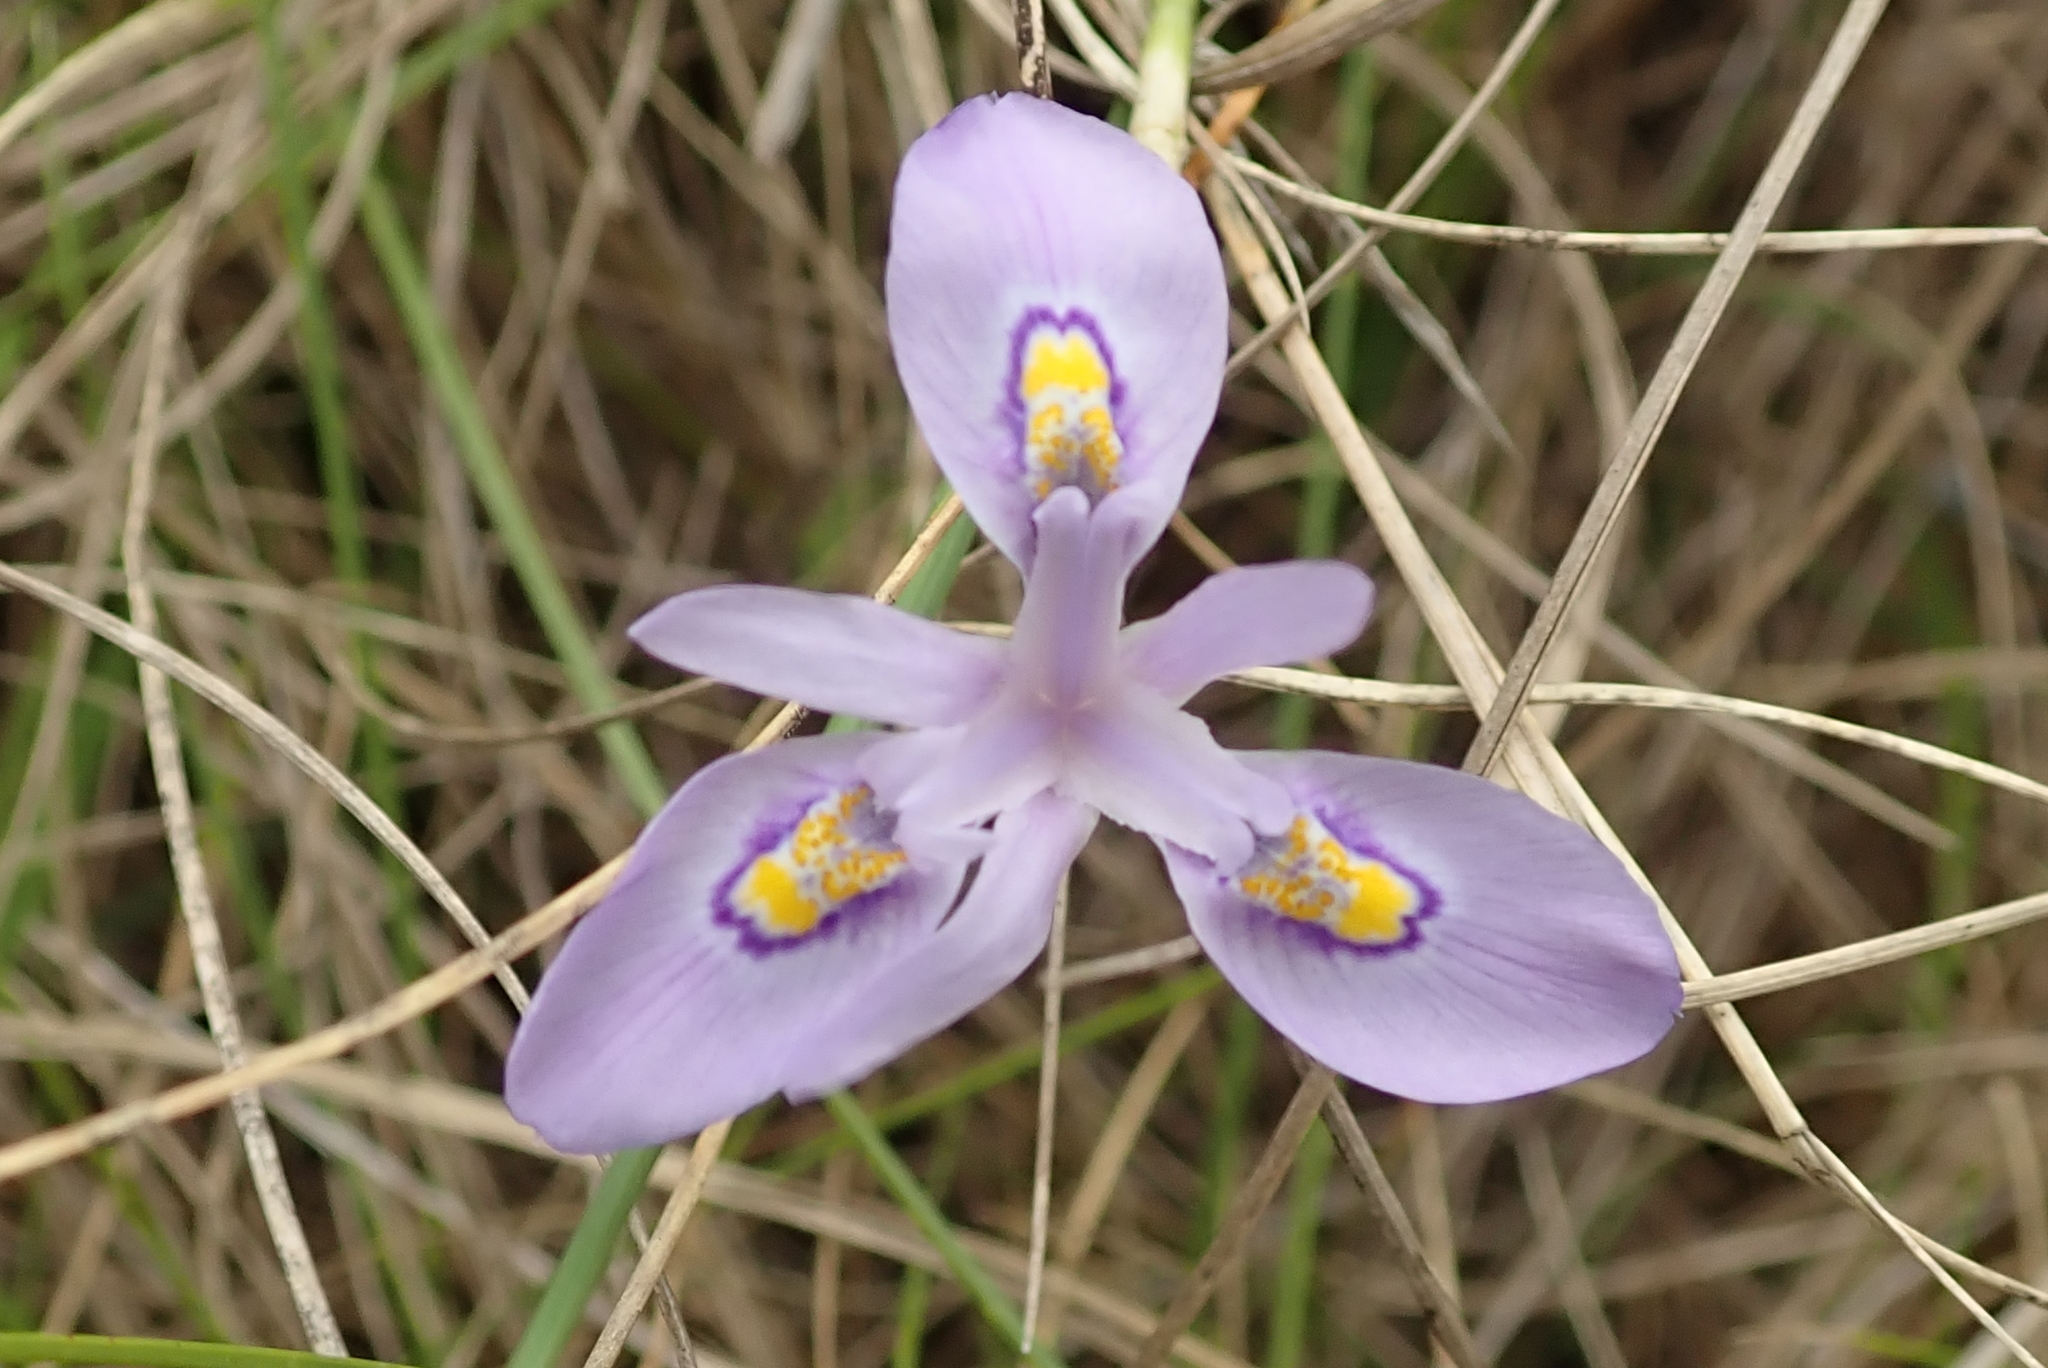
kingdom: Plantae
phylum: Tracheophyta
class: Liliopsida
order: Asparagales
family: Iridaceae
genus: Moraea
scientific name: Moraea elliotii
